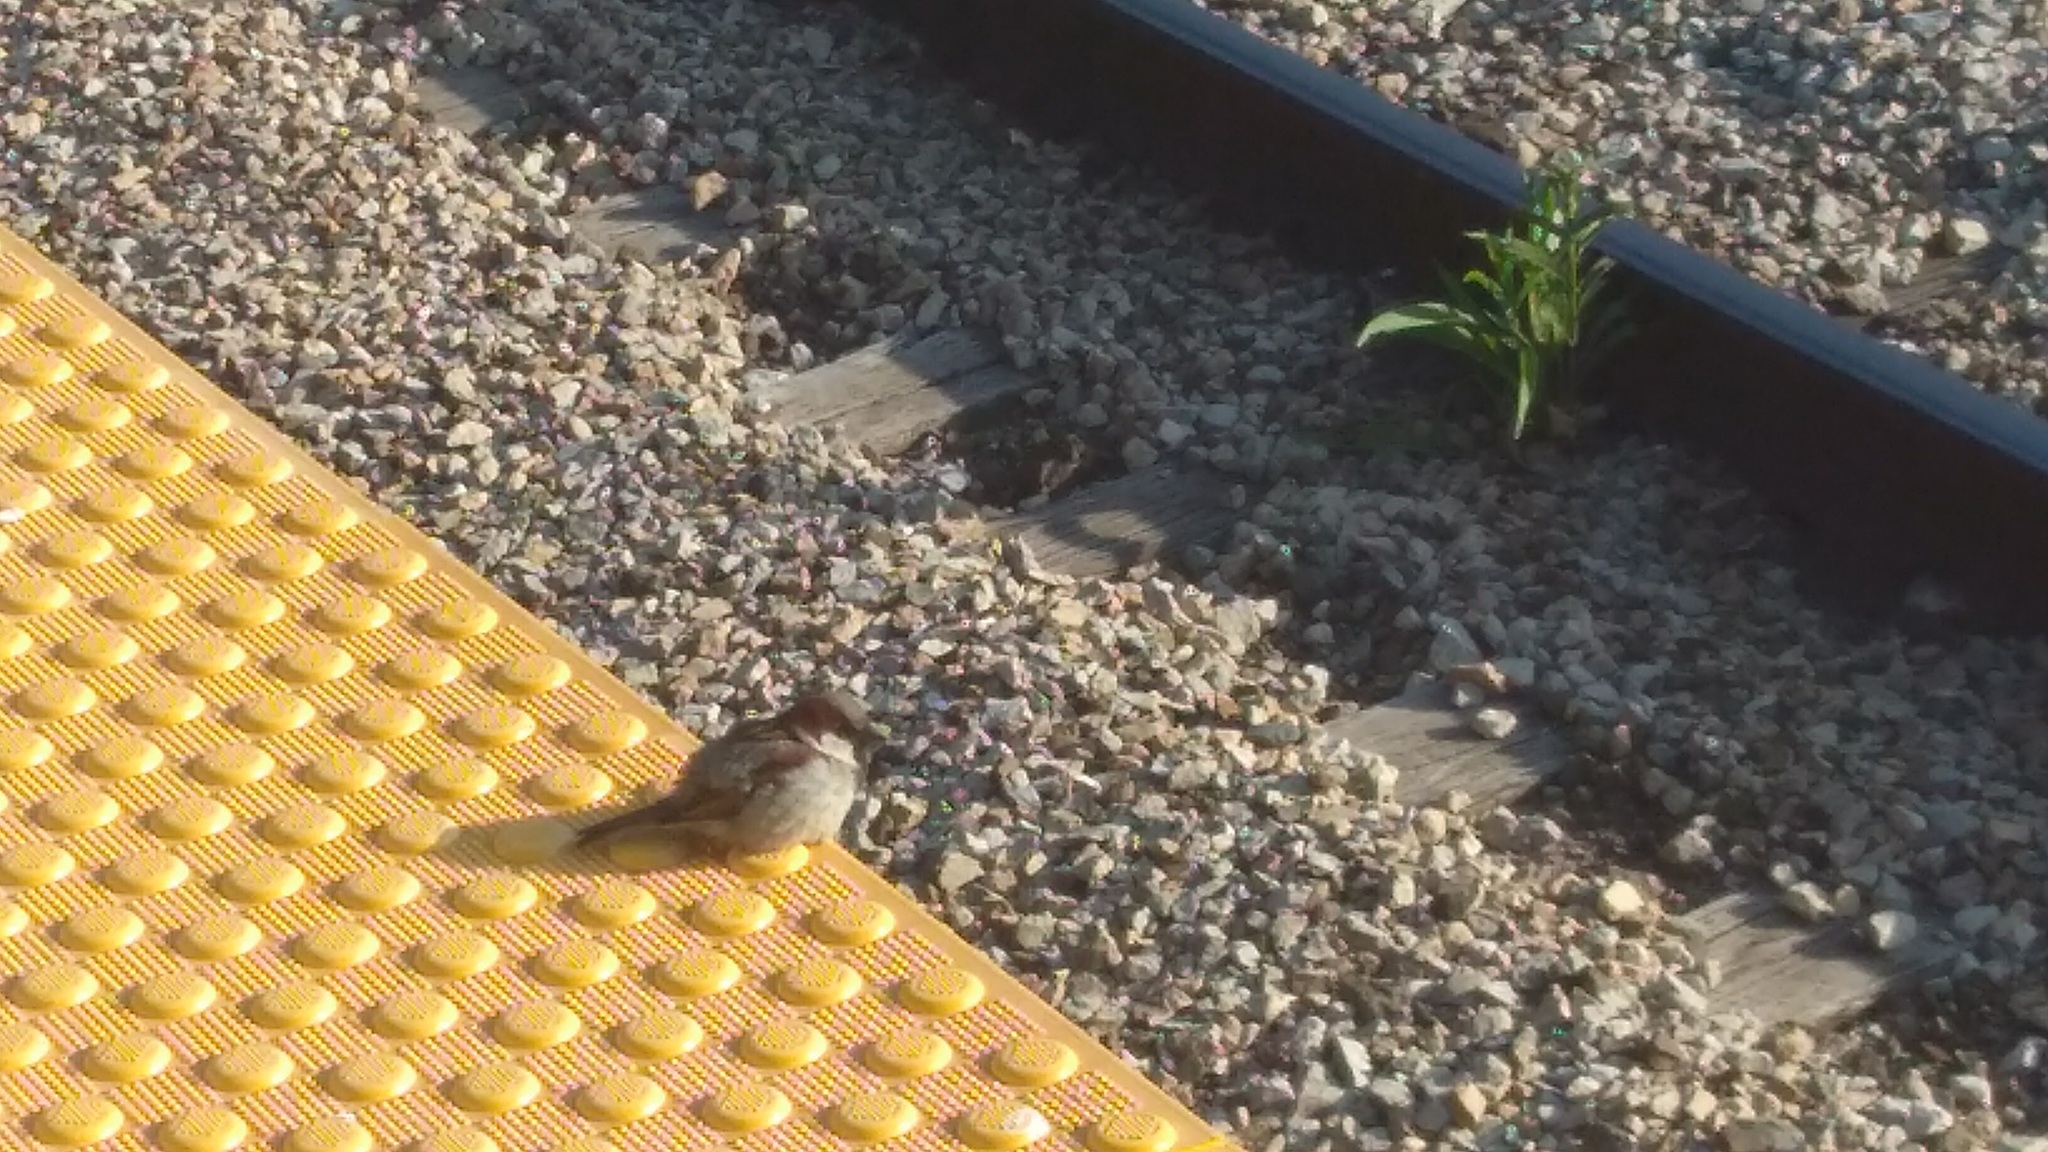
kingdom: Animalia
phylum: Chordata
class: Aves
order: Passeriformes
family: Passeridae
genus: Passer
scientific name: Passer domesticus
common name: House sparrow
